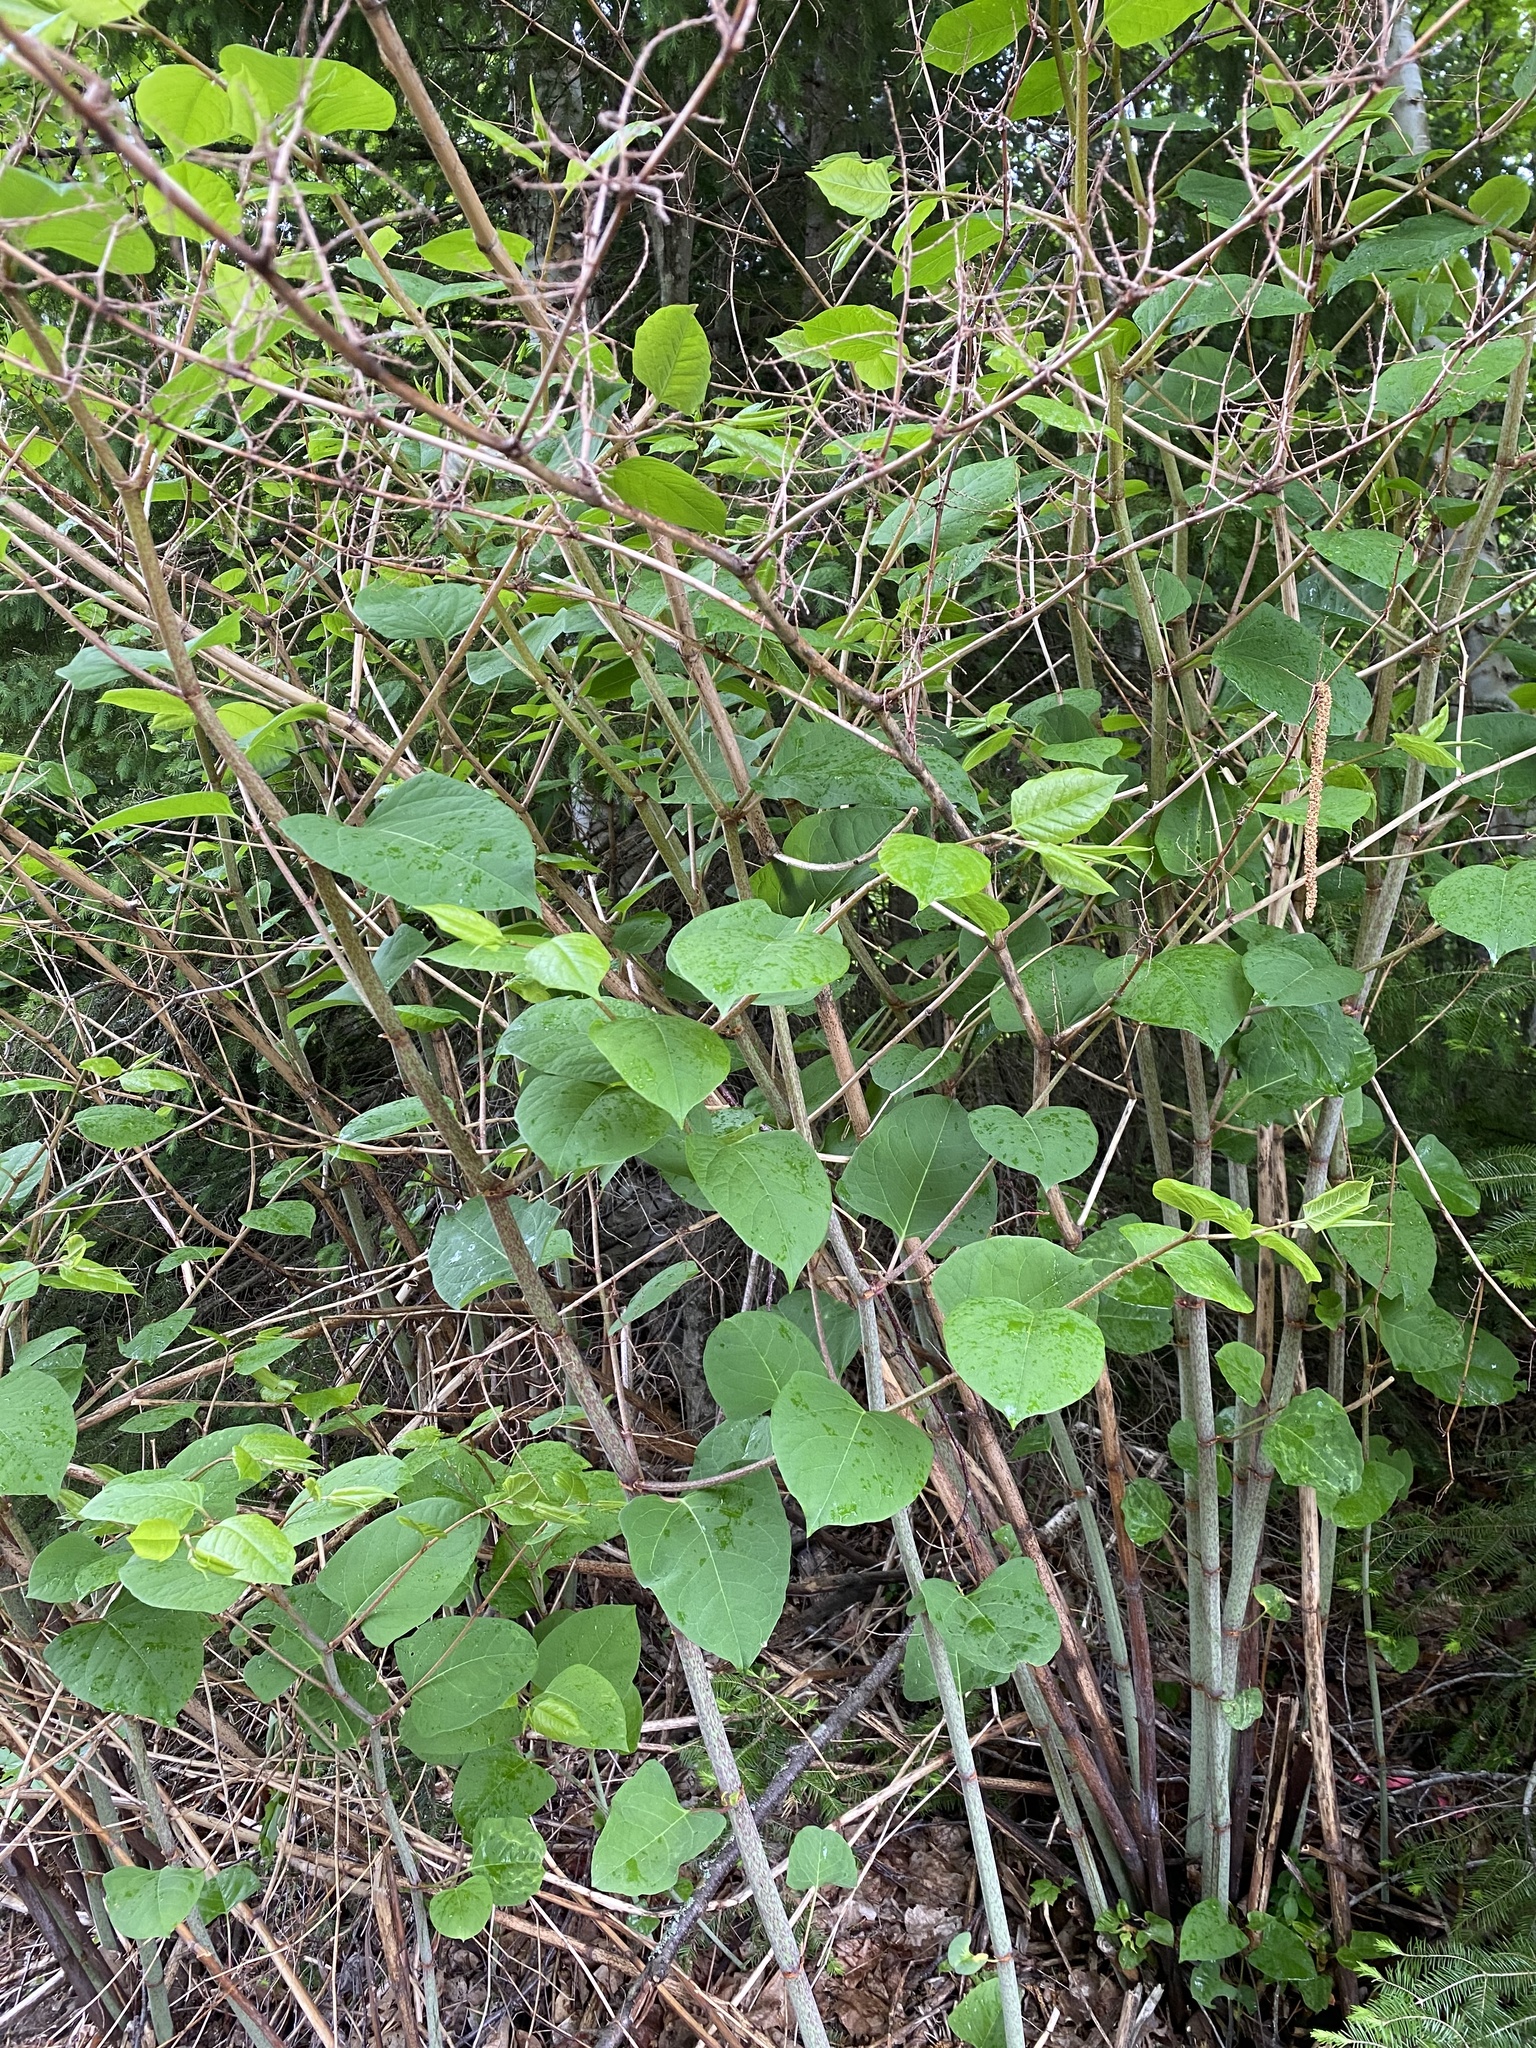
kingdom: Plantae
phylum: Tracheophyta
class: Magnoliopsida
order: Caryophyllales
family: Polygonaceae
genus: Reynoutria
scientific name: Reynoutria japonica
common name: Japanese knotweed
